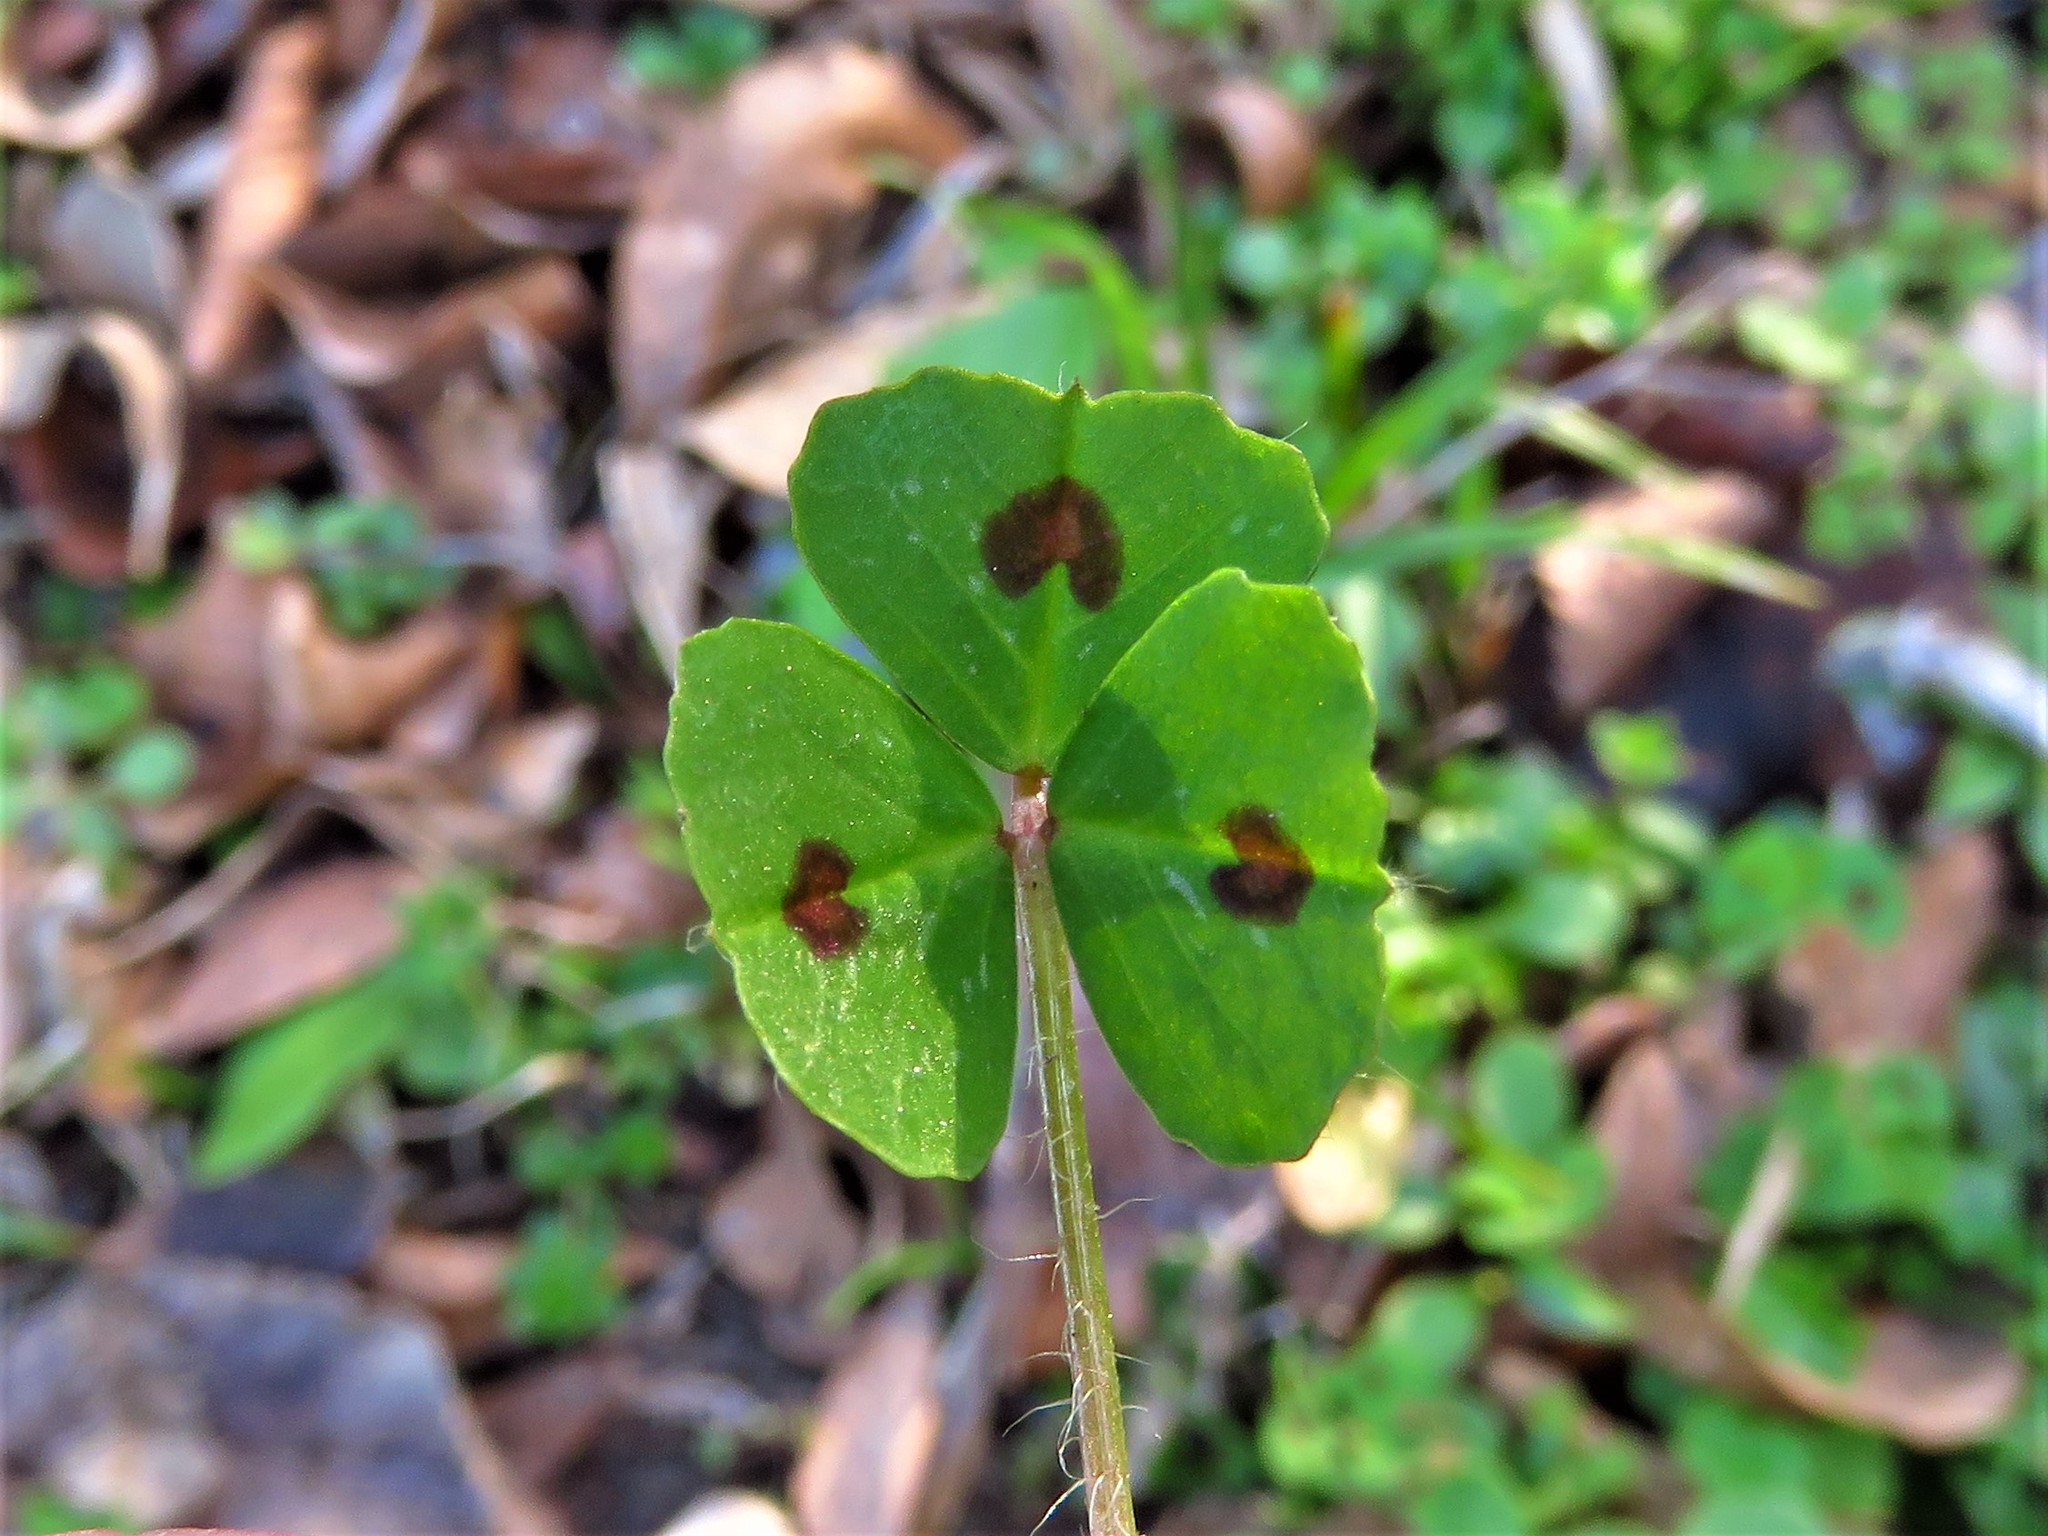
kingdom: Plantae
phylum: Tracheophyta
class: Magnoliopsida
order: Fabales
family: Fabaceae
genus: Medicago
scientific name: Medicago arabica
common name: Spotted medick
